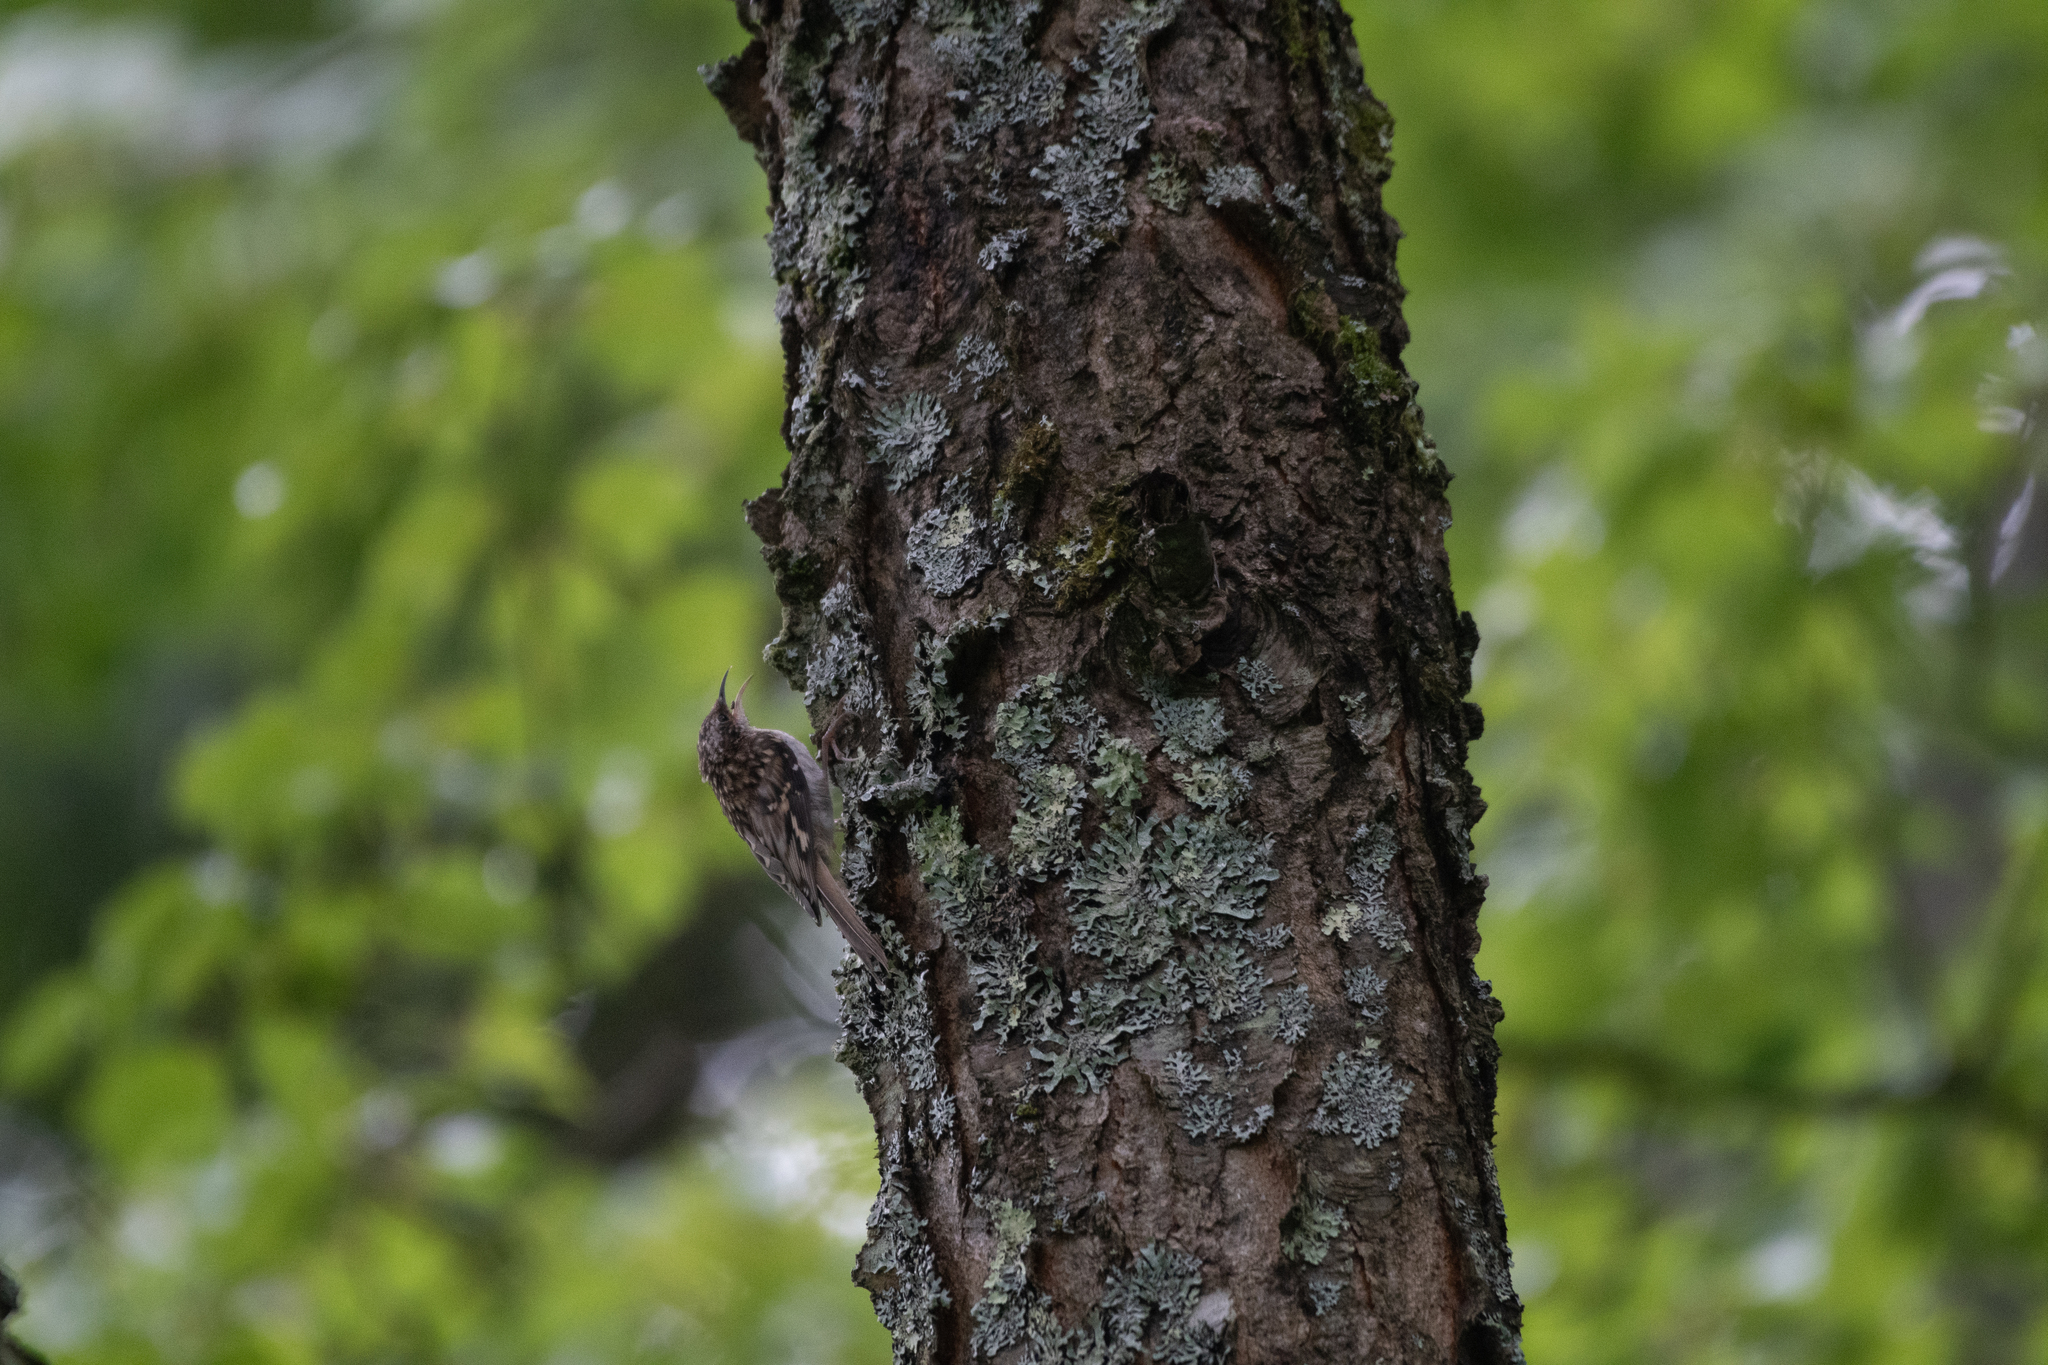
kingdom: Animalia
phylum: Chordata
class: Aves
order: Passeriformes
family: Certhiidae
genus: Certhia
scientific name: Certhia americana
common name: Brown creeper
